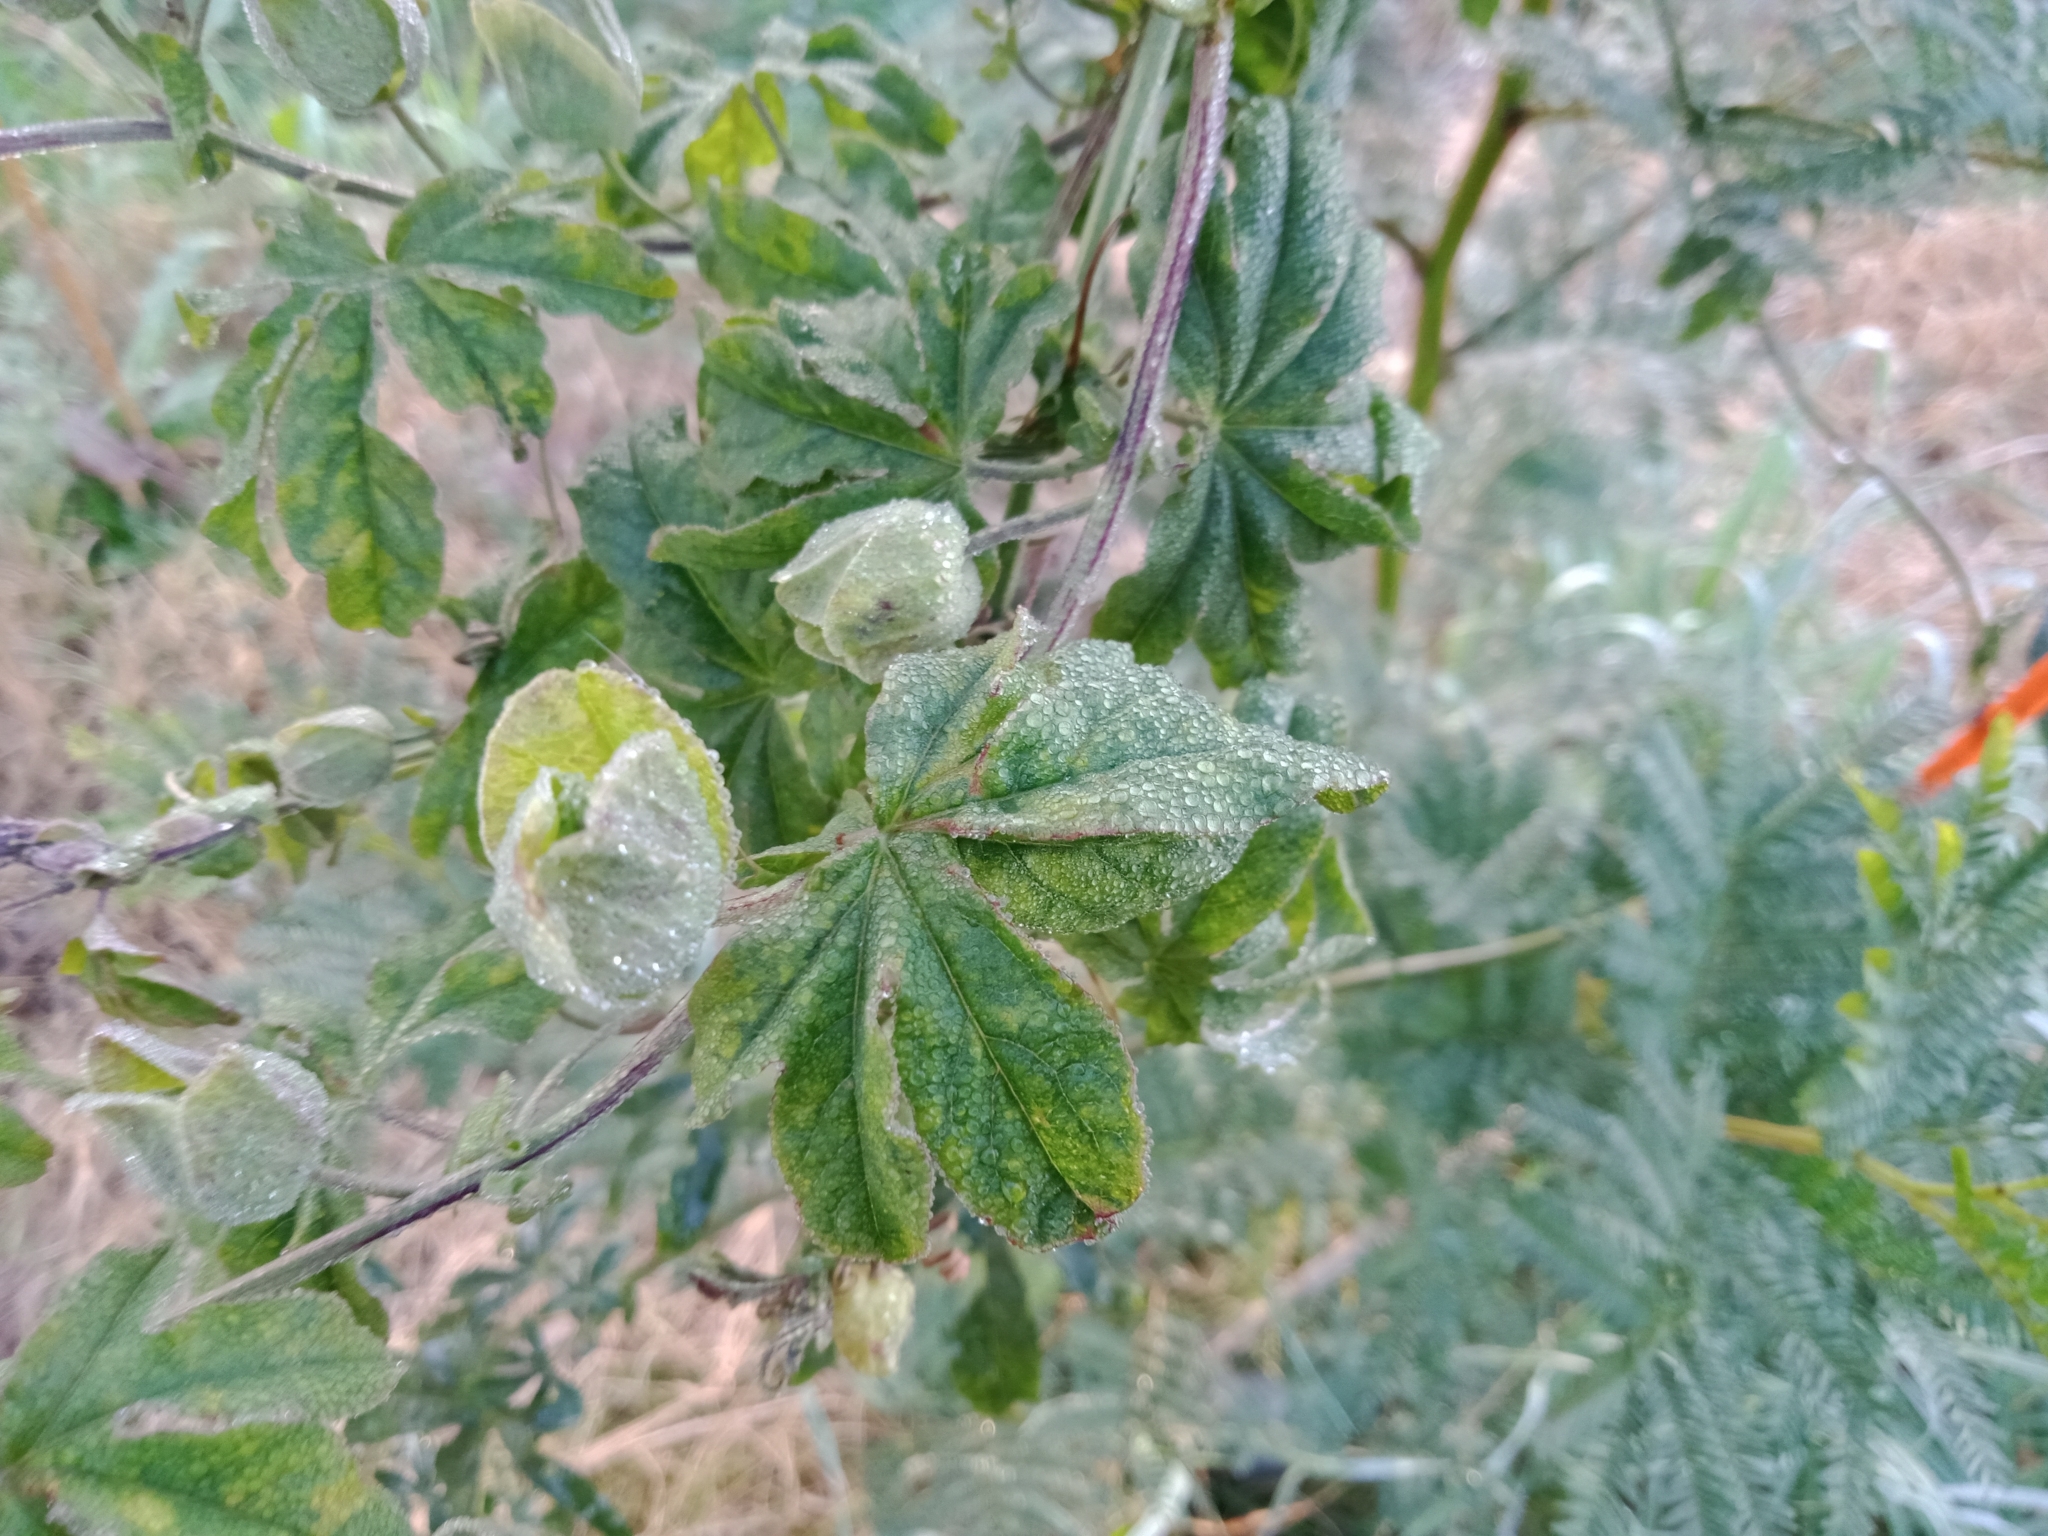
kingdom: Plantae
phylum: Tracheophyta
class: Magnoliopsida
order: Malpighiales
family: Passifloraceae
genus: Passiflora
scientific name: Passiflora caerulea
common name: Blue passionflower
